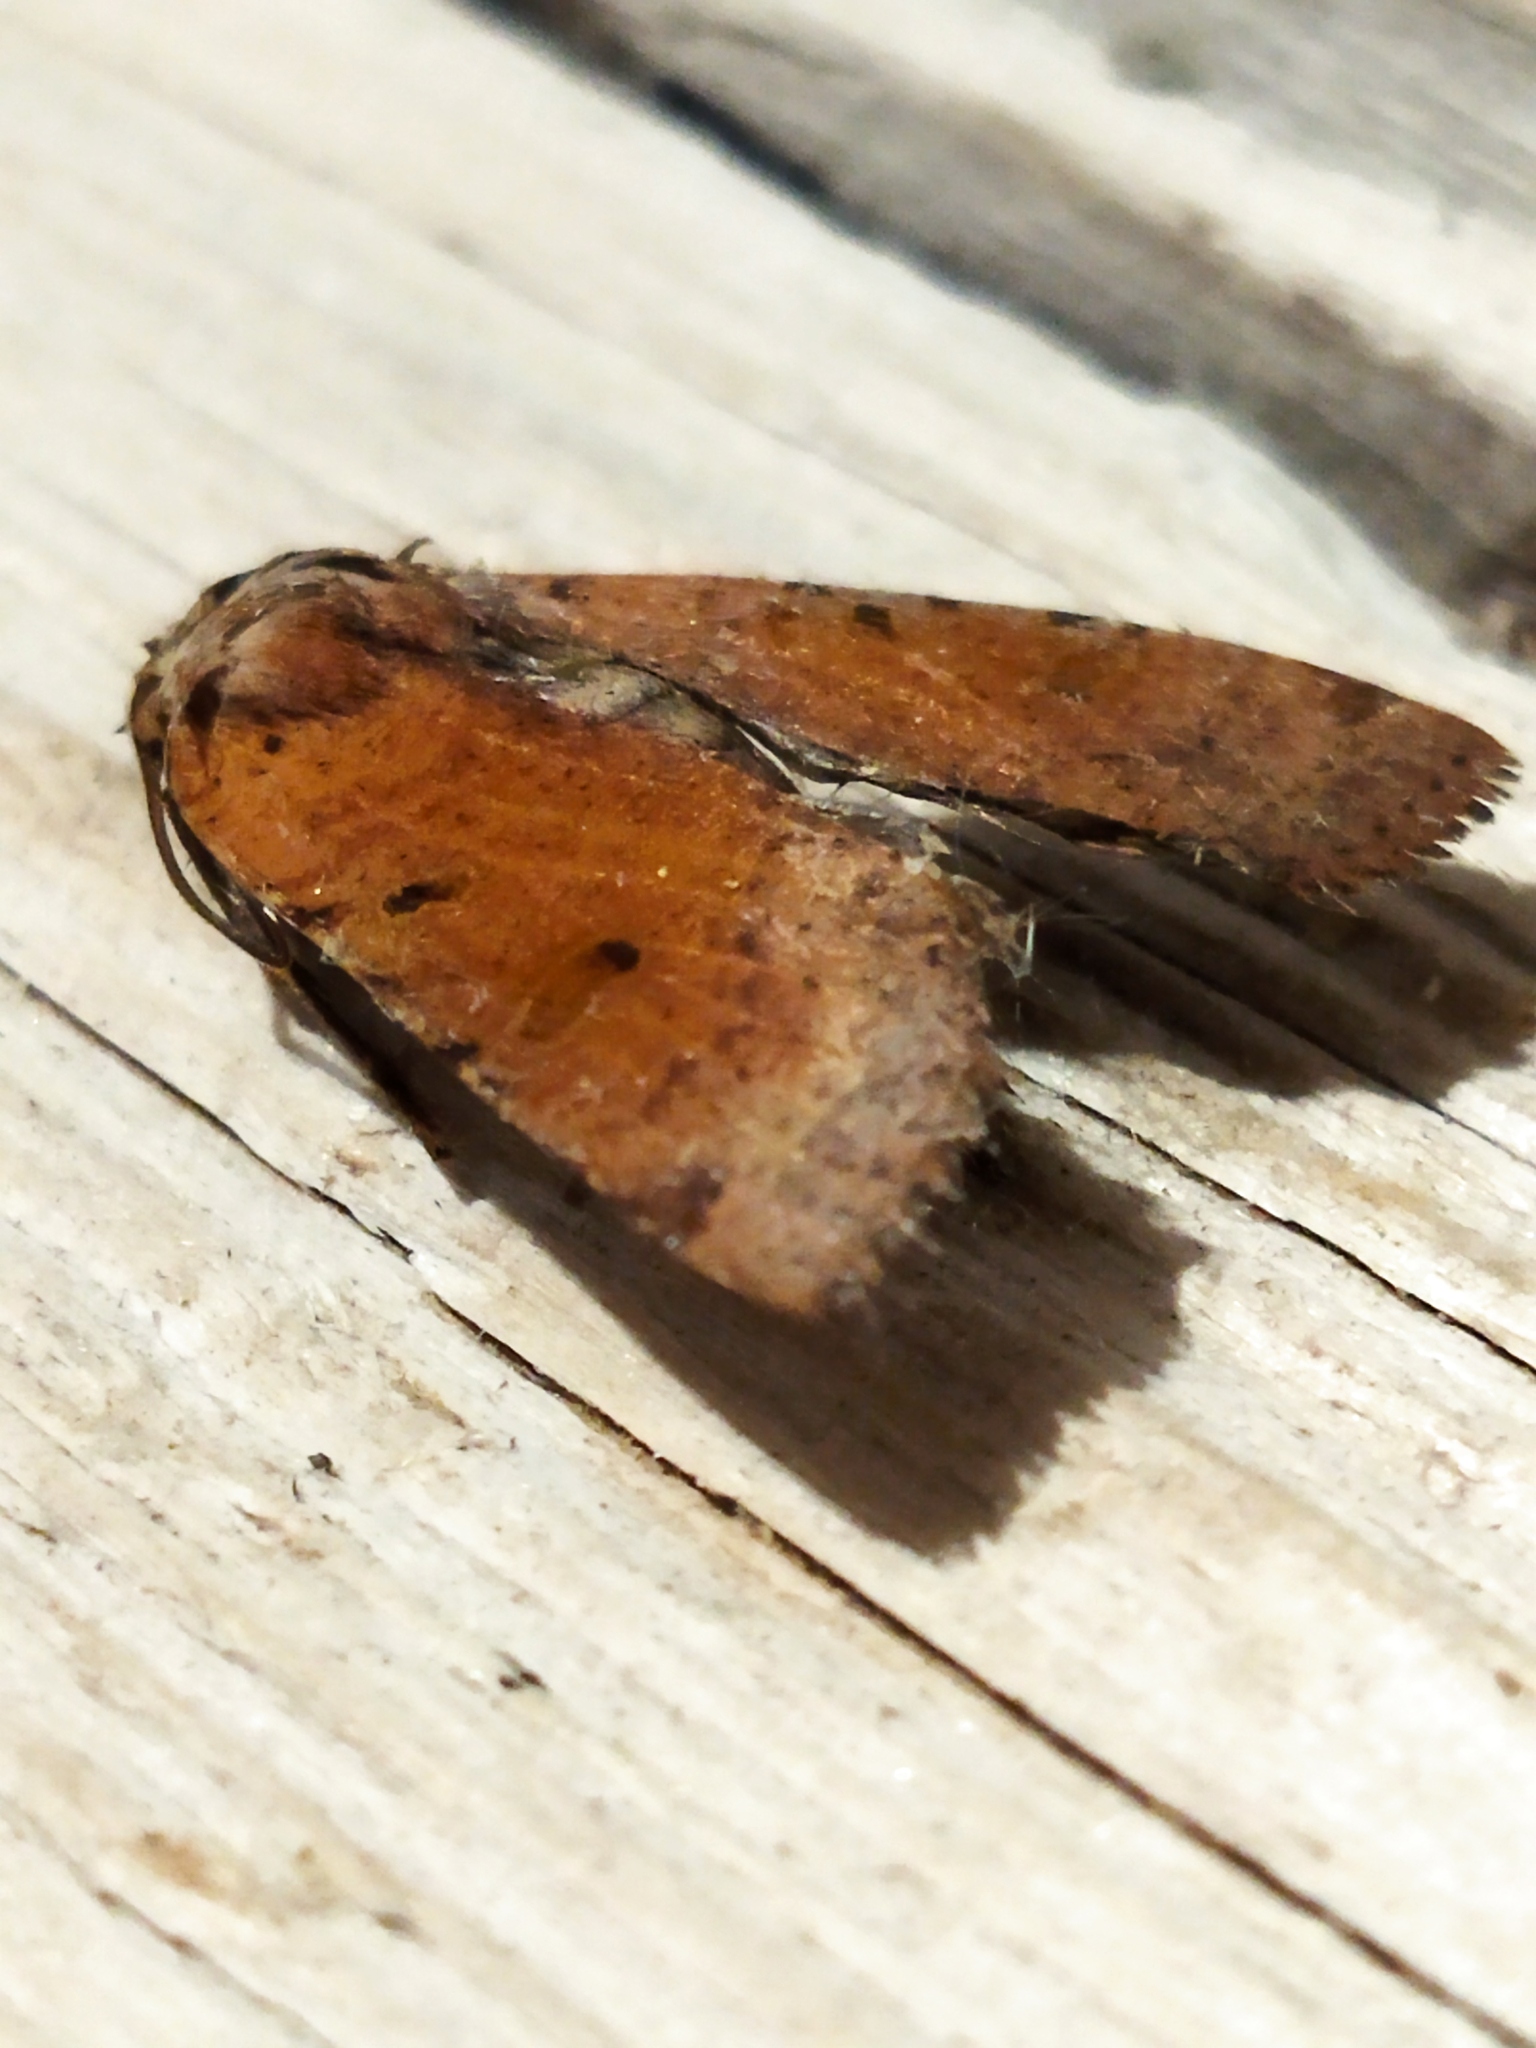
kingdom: Animalia
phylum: Arthropoda
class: Insecta
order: Lepidoptera
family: Noctuidae
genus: Agrochola
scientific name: Agrochola lychnidis
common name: Beaded chestnut
